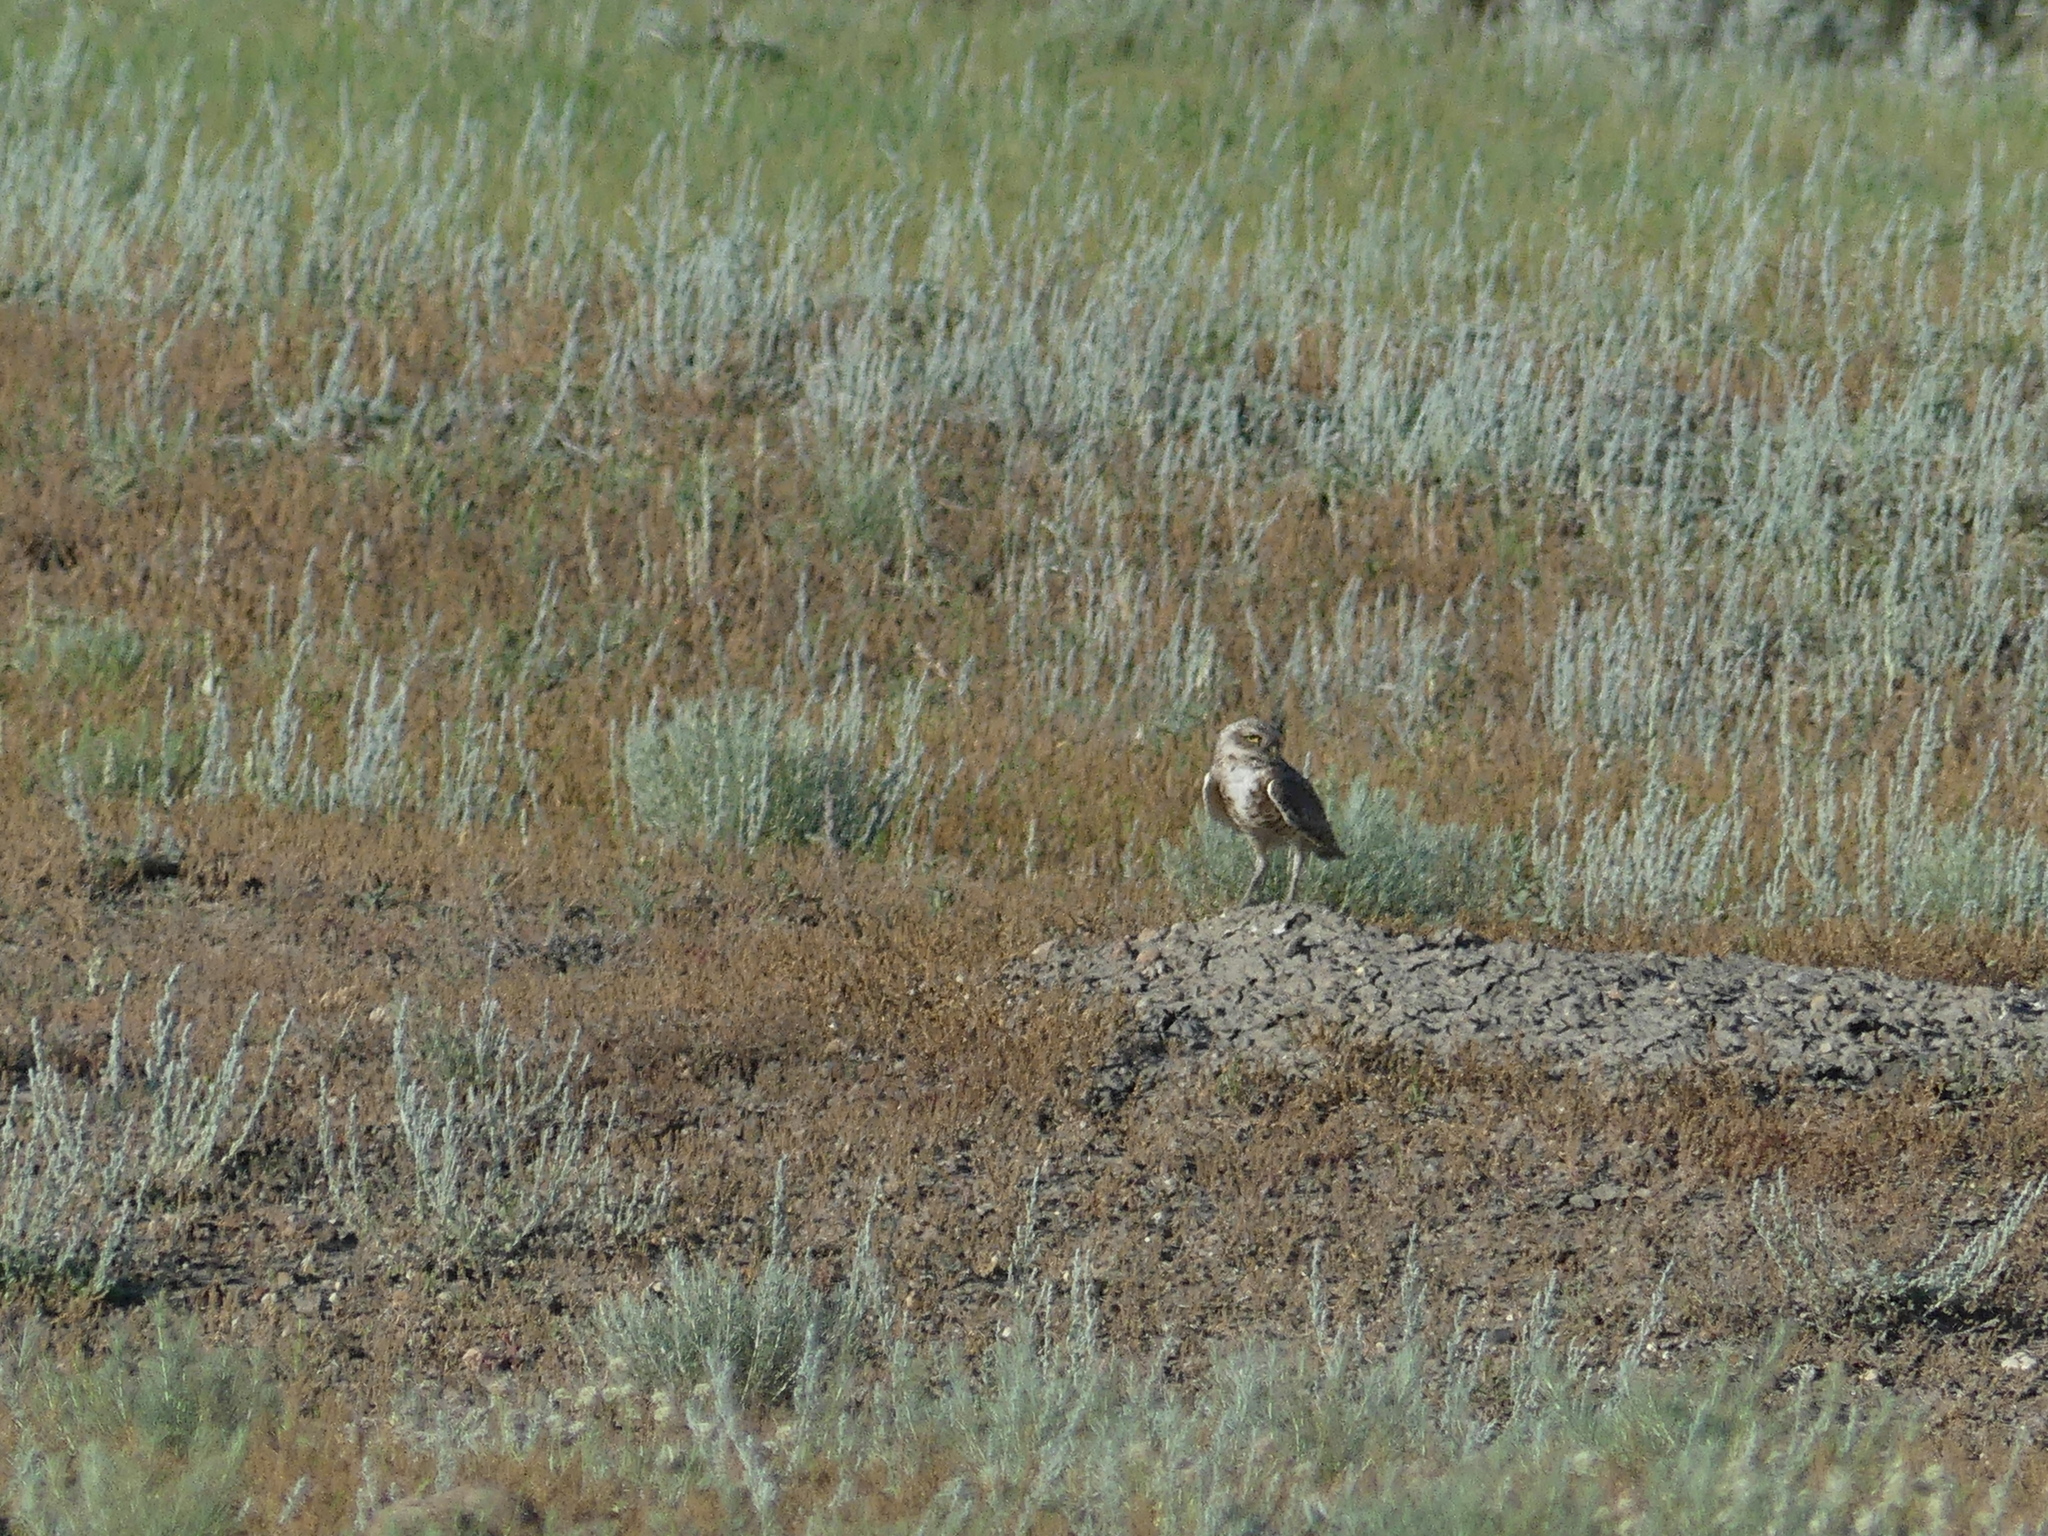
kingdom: Animalia
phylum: Chordata
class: Aves
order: Strigiformes
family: Strigidae
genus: Athene
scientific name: Athene cunicularia
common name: Burrowing owl
